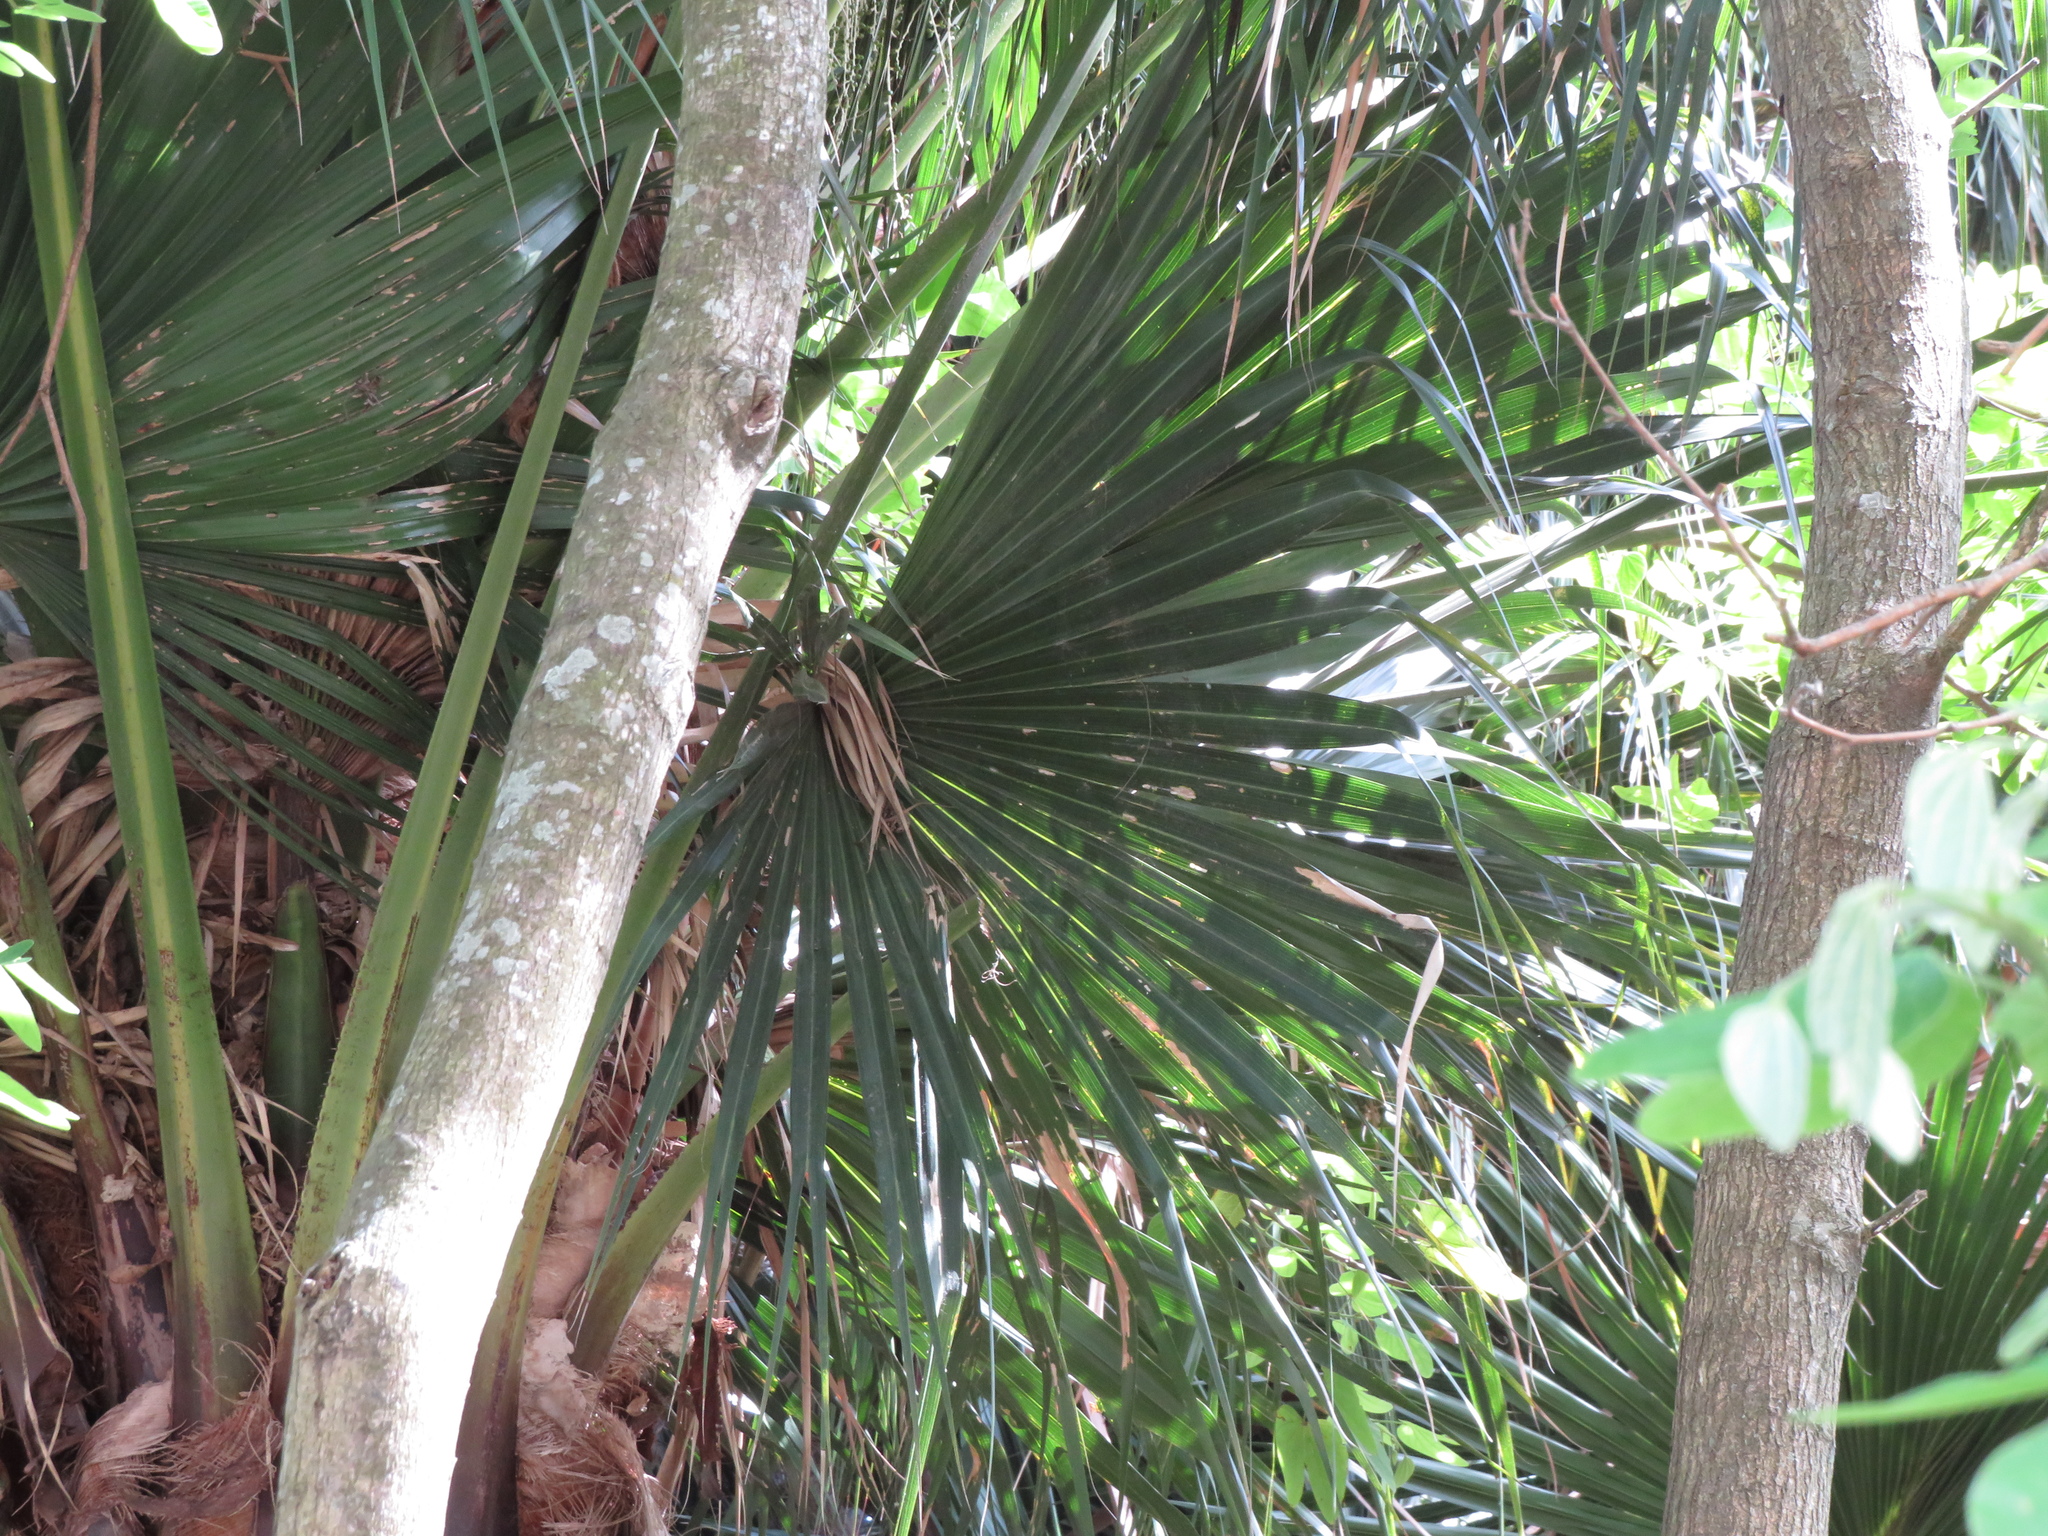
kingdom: Plantae
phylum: Tracheophyta
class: Liliopsida
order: Arecales
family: Arecaceae
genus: Livistona
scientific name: Livistona chinensis
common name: Fountain palm
